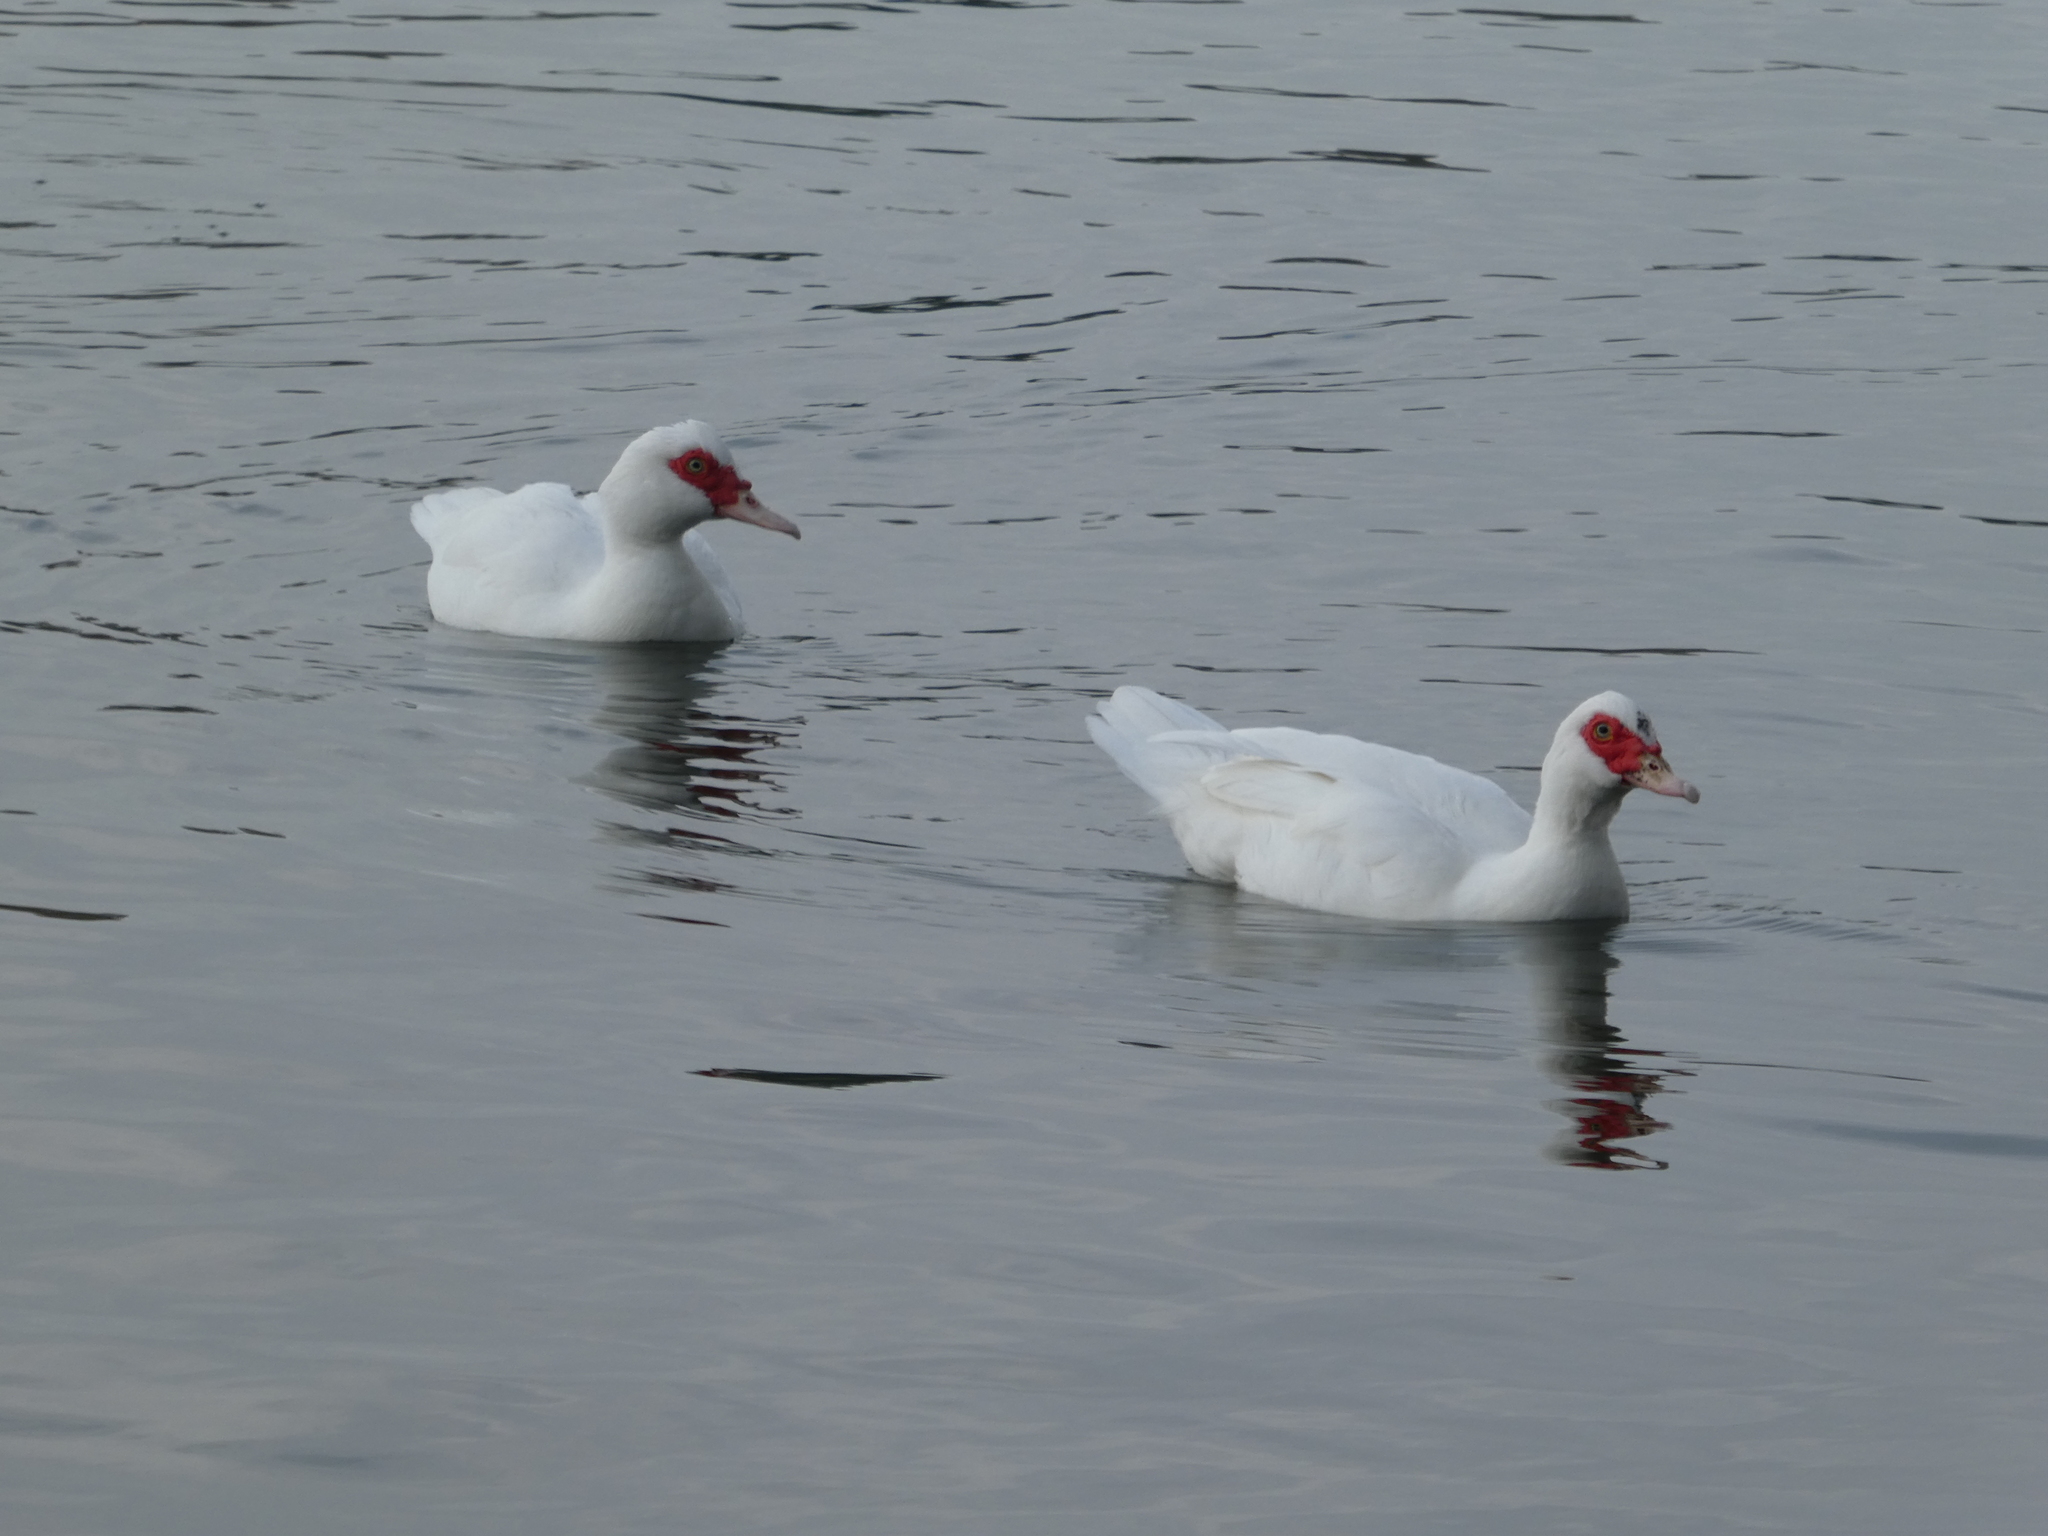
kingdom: Animalia
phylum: Chordata
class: Aves
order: Anseriformes
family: Anatidae
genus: Cairina
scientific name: Cairina moschata
